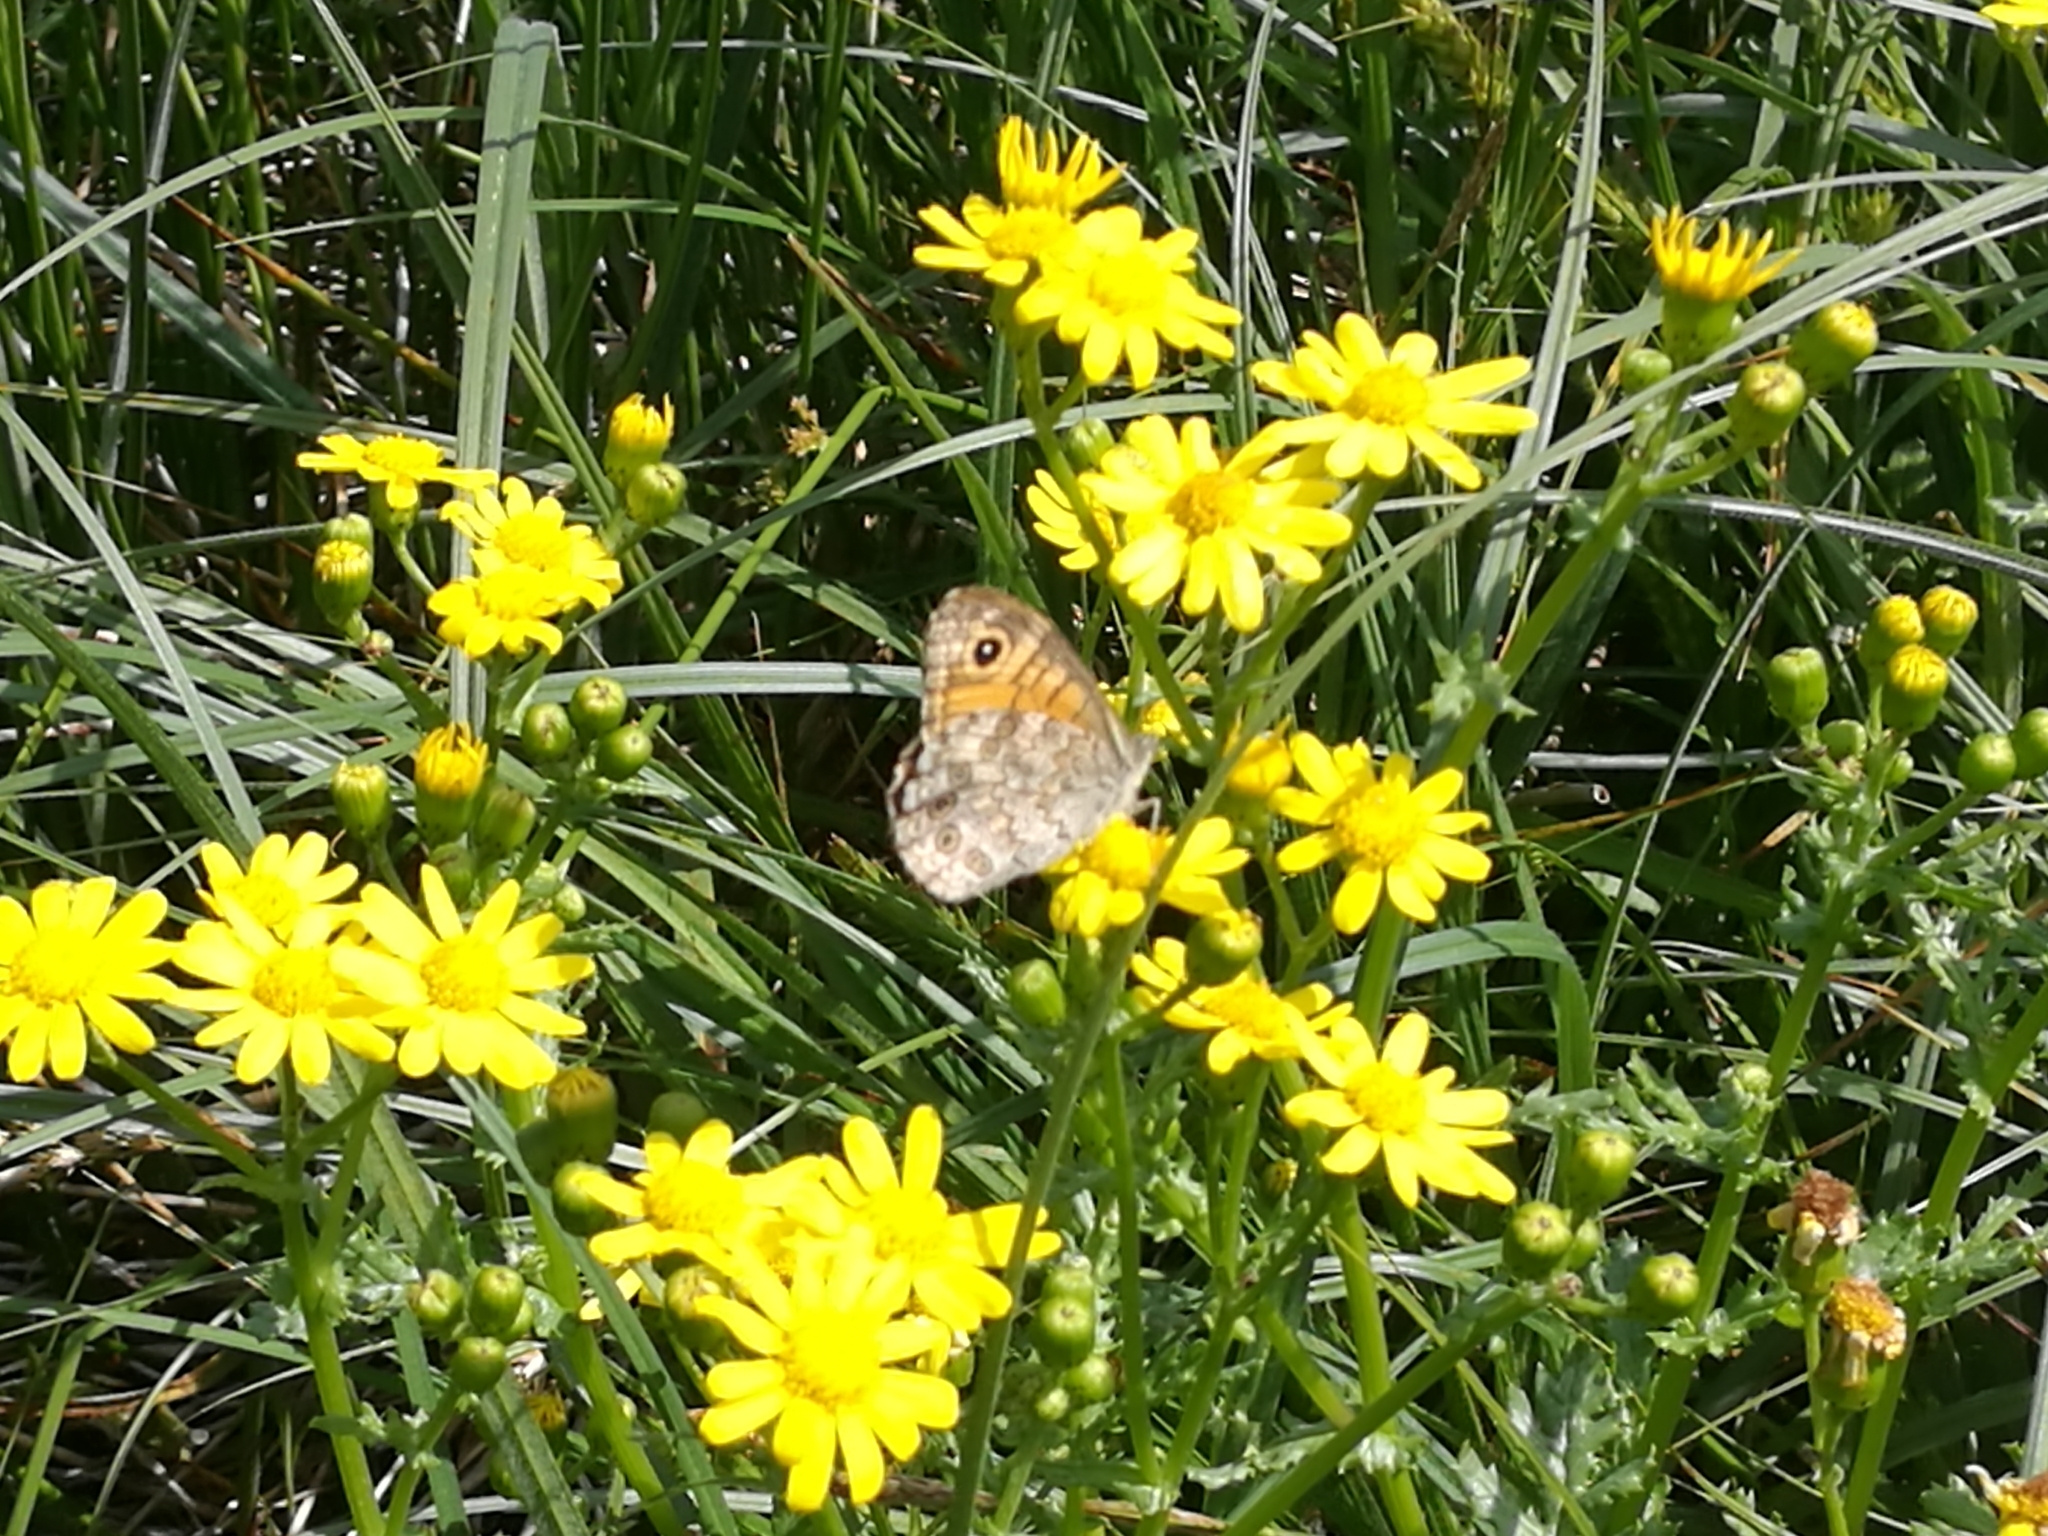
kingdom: Animalia
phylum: Arthropoda
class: Insecta
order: Lepidoptera
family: Nymphalidae
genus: Pararge
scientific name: Pararge Lasiommata megera
